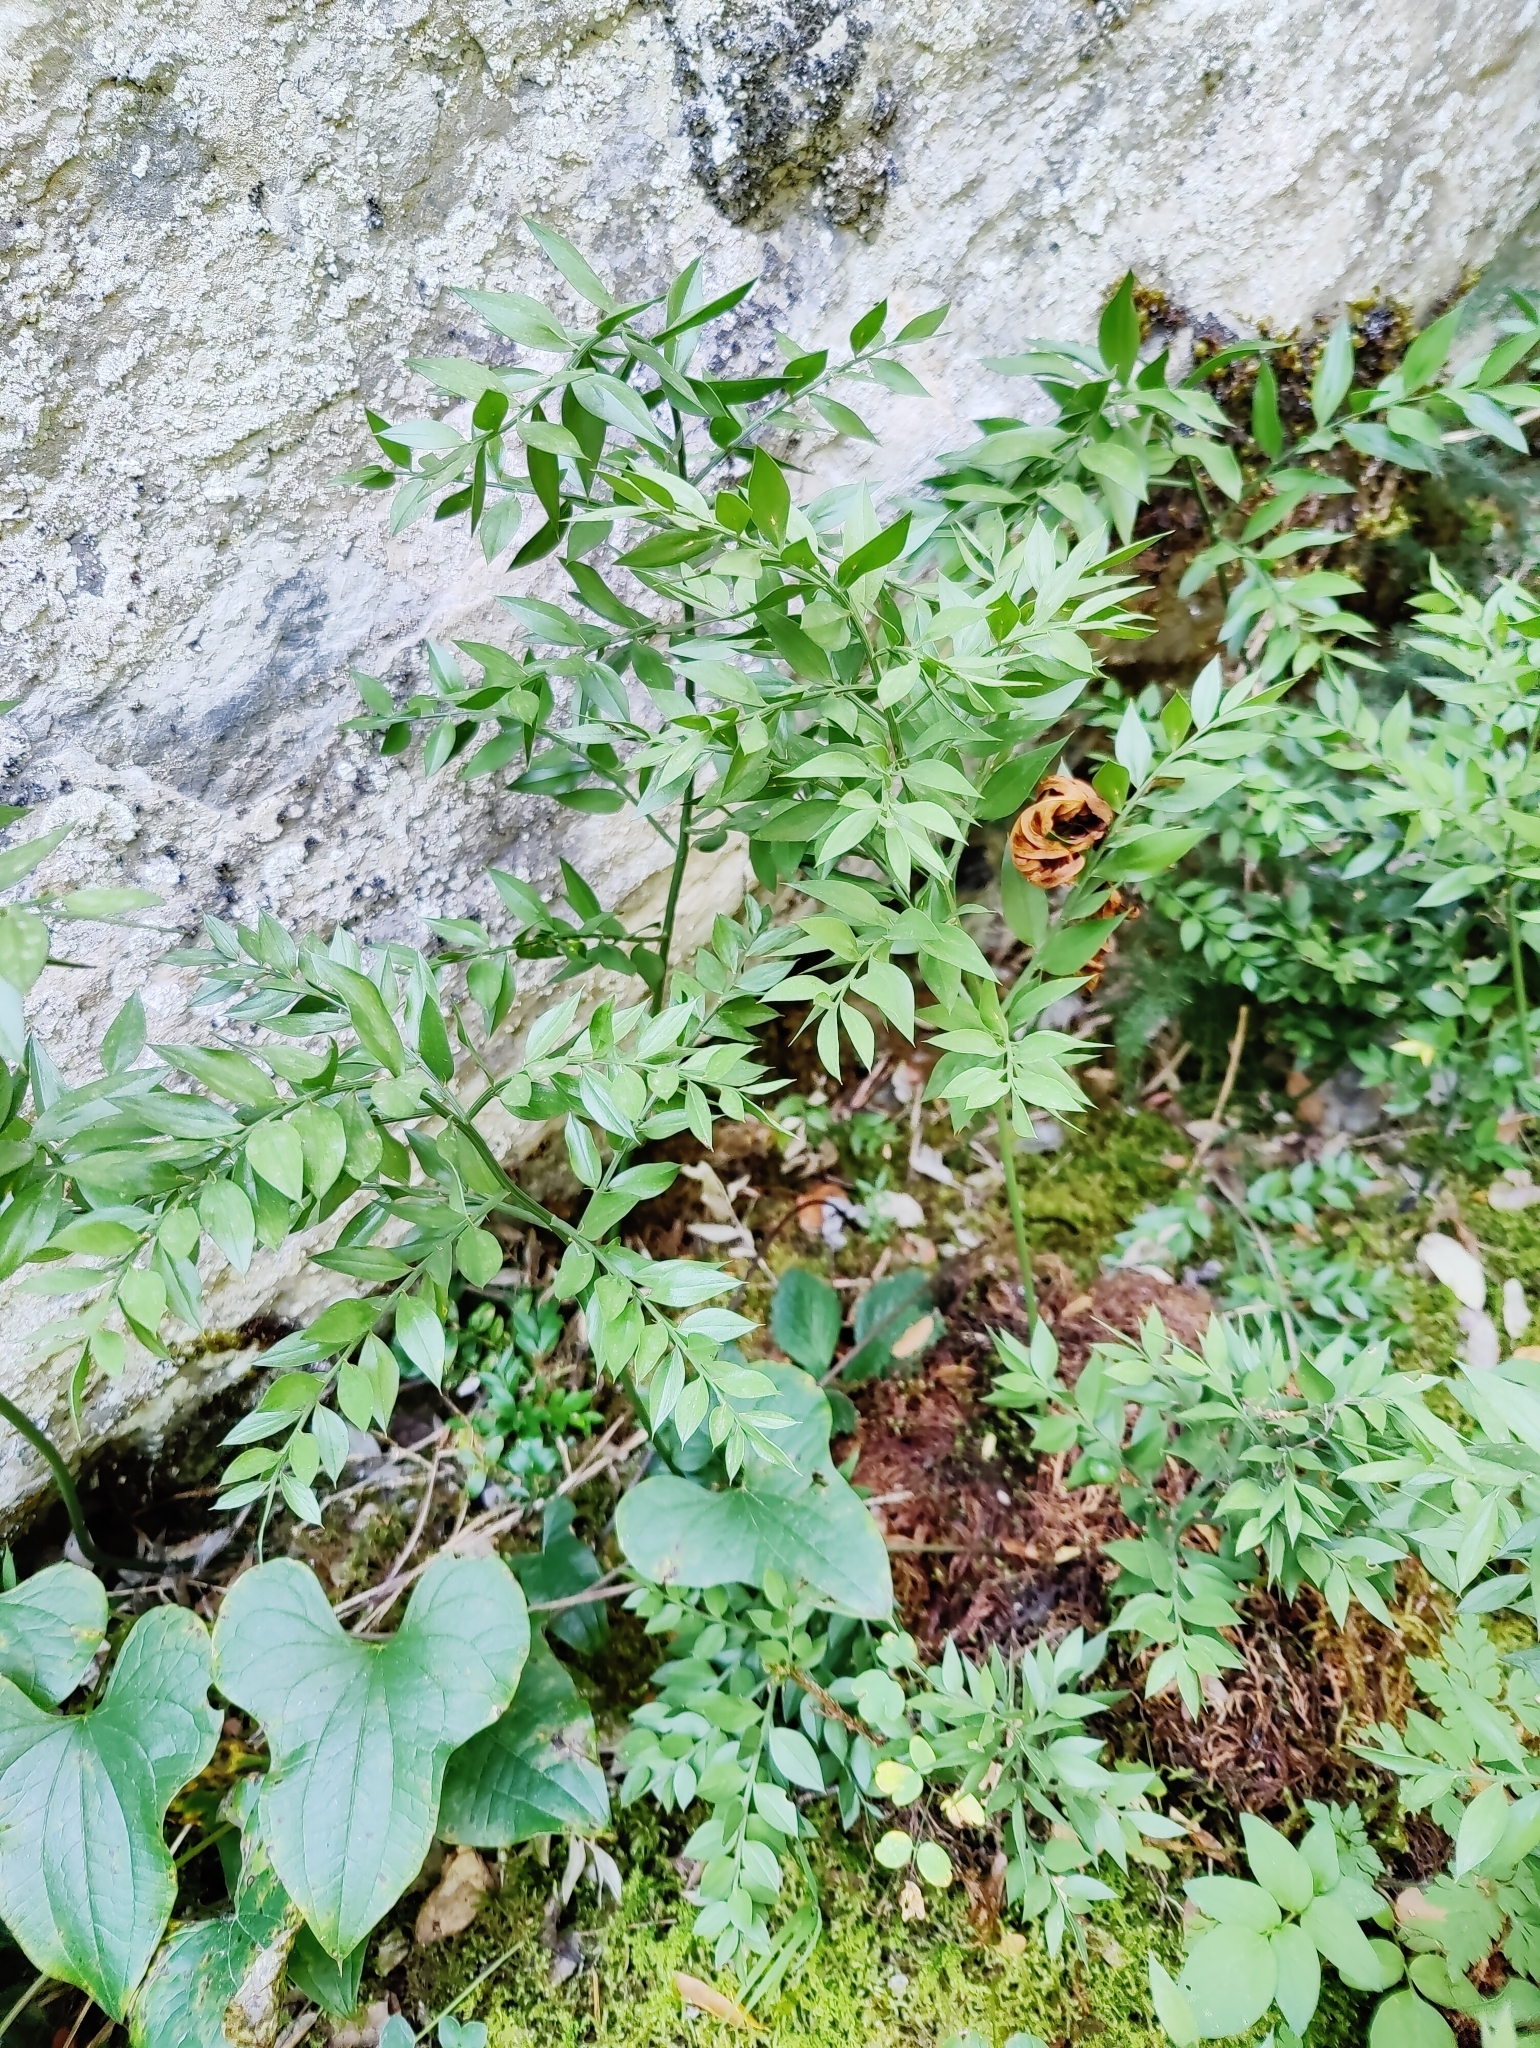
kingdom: Plantae
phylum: Tracheophyta
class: Liliopsida
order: Asparagales
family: Asparagaceae
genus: Ruscus
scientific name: Ruscus aculeatus
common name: Butcher's-broom
